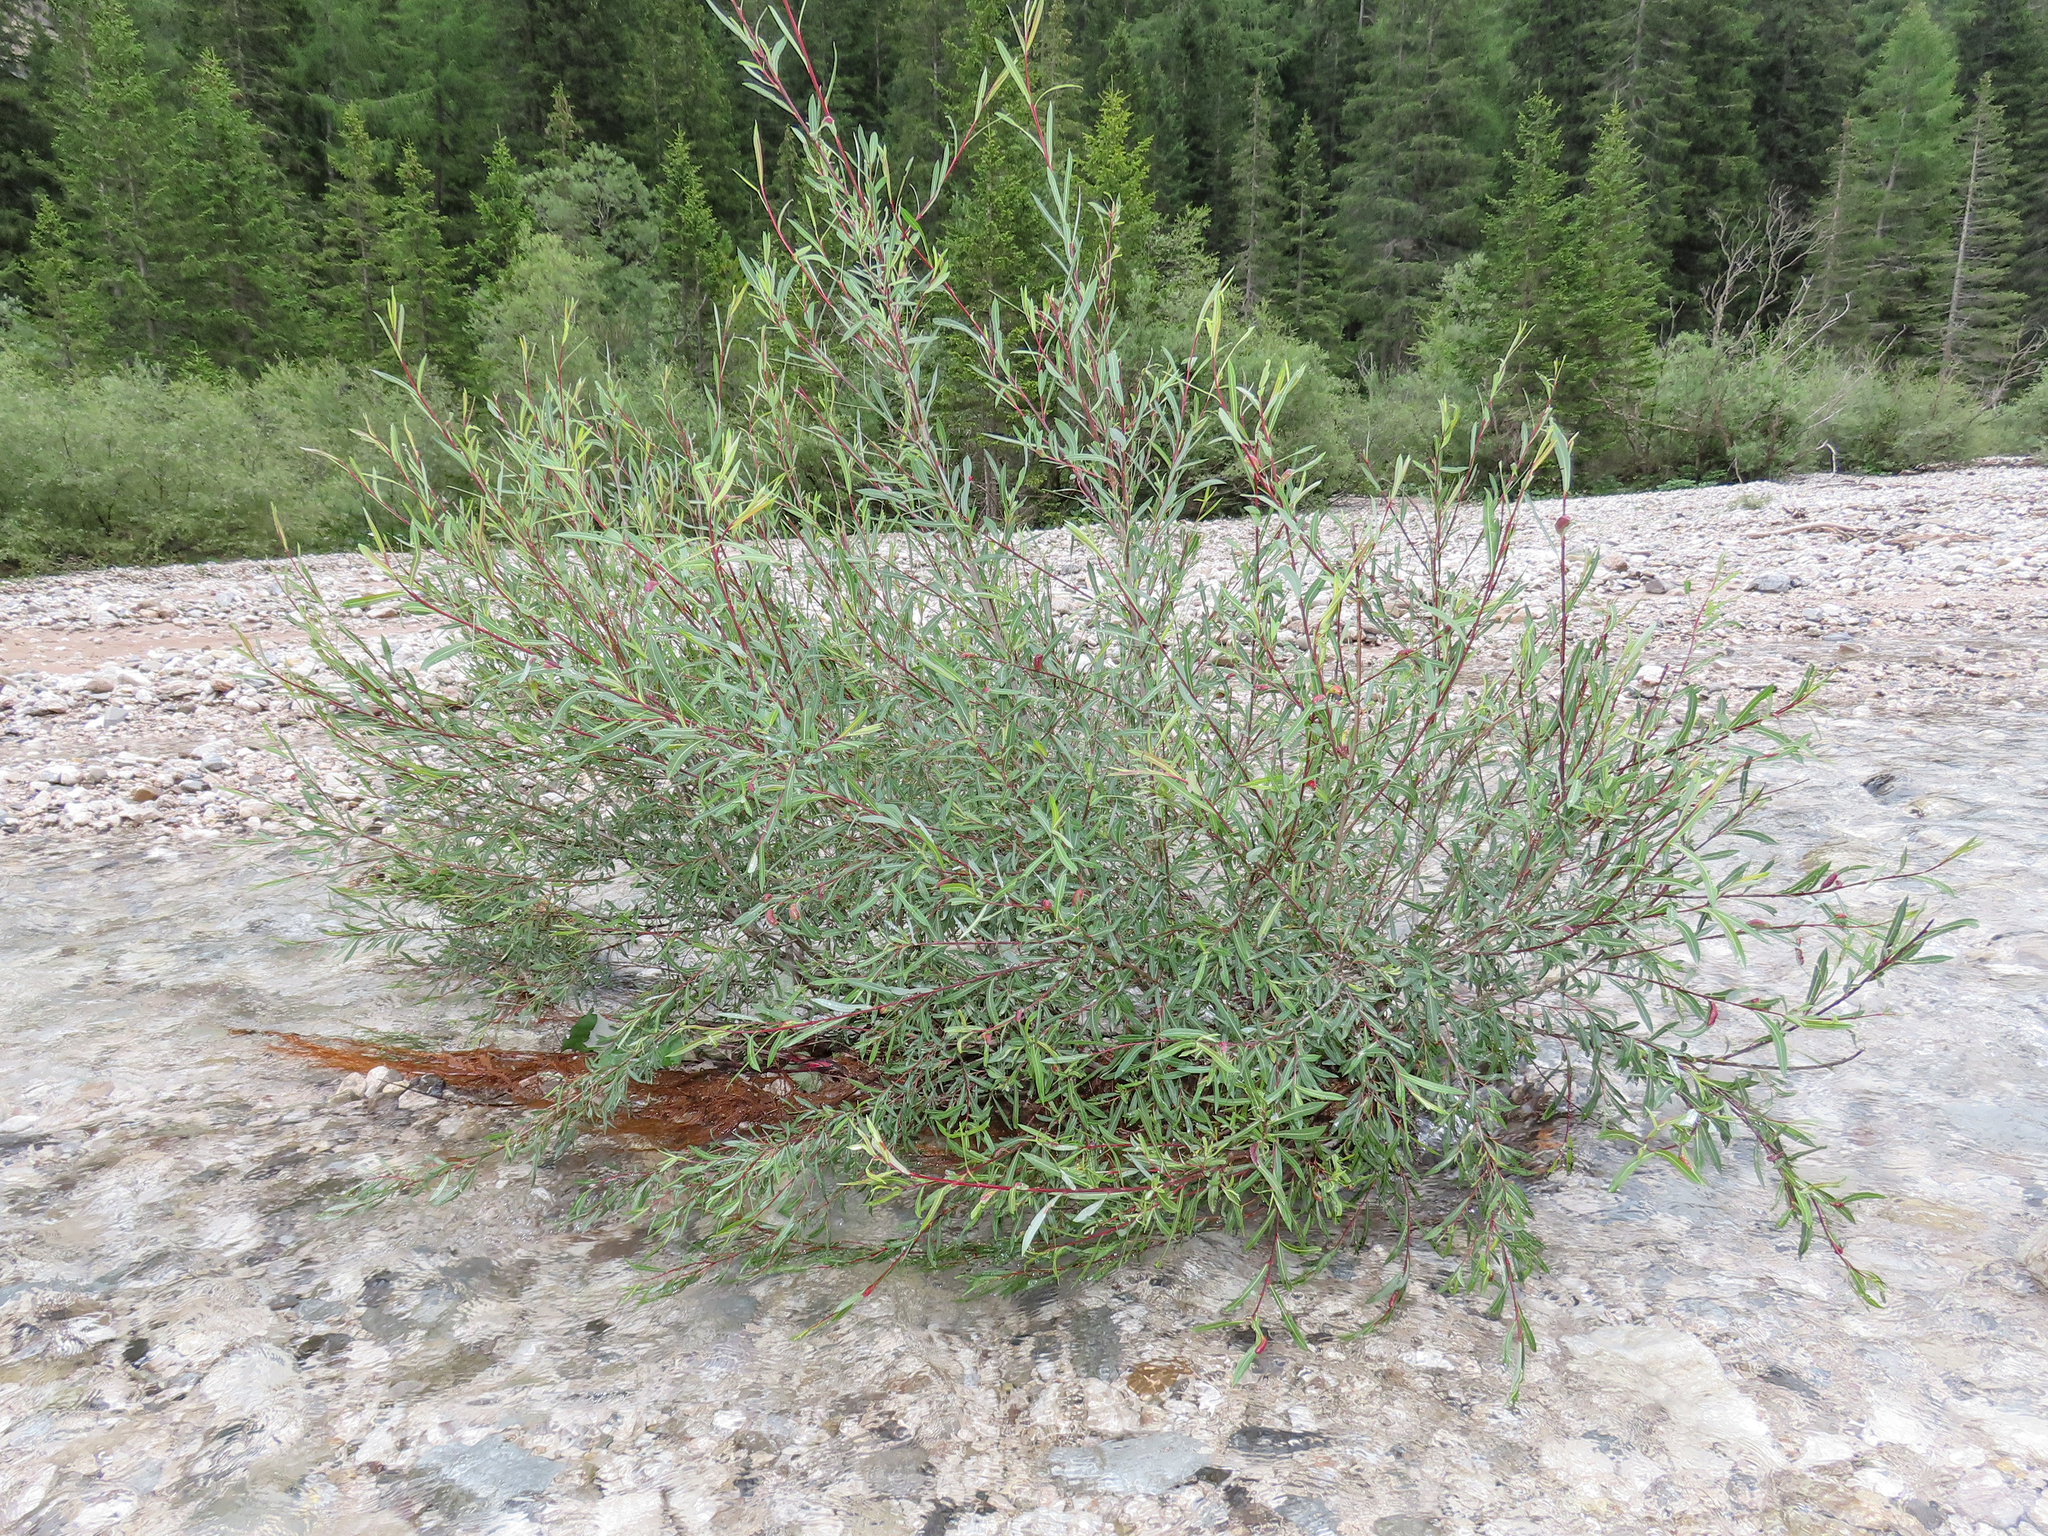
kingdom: Plantae
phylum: Tracheophyta
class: Magnoliopsida
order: Malpighiales
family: Salicaceae
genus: Salix
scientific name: Salix purpurea
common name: Purple willow
